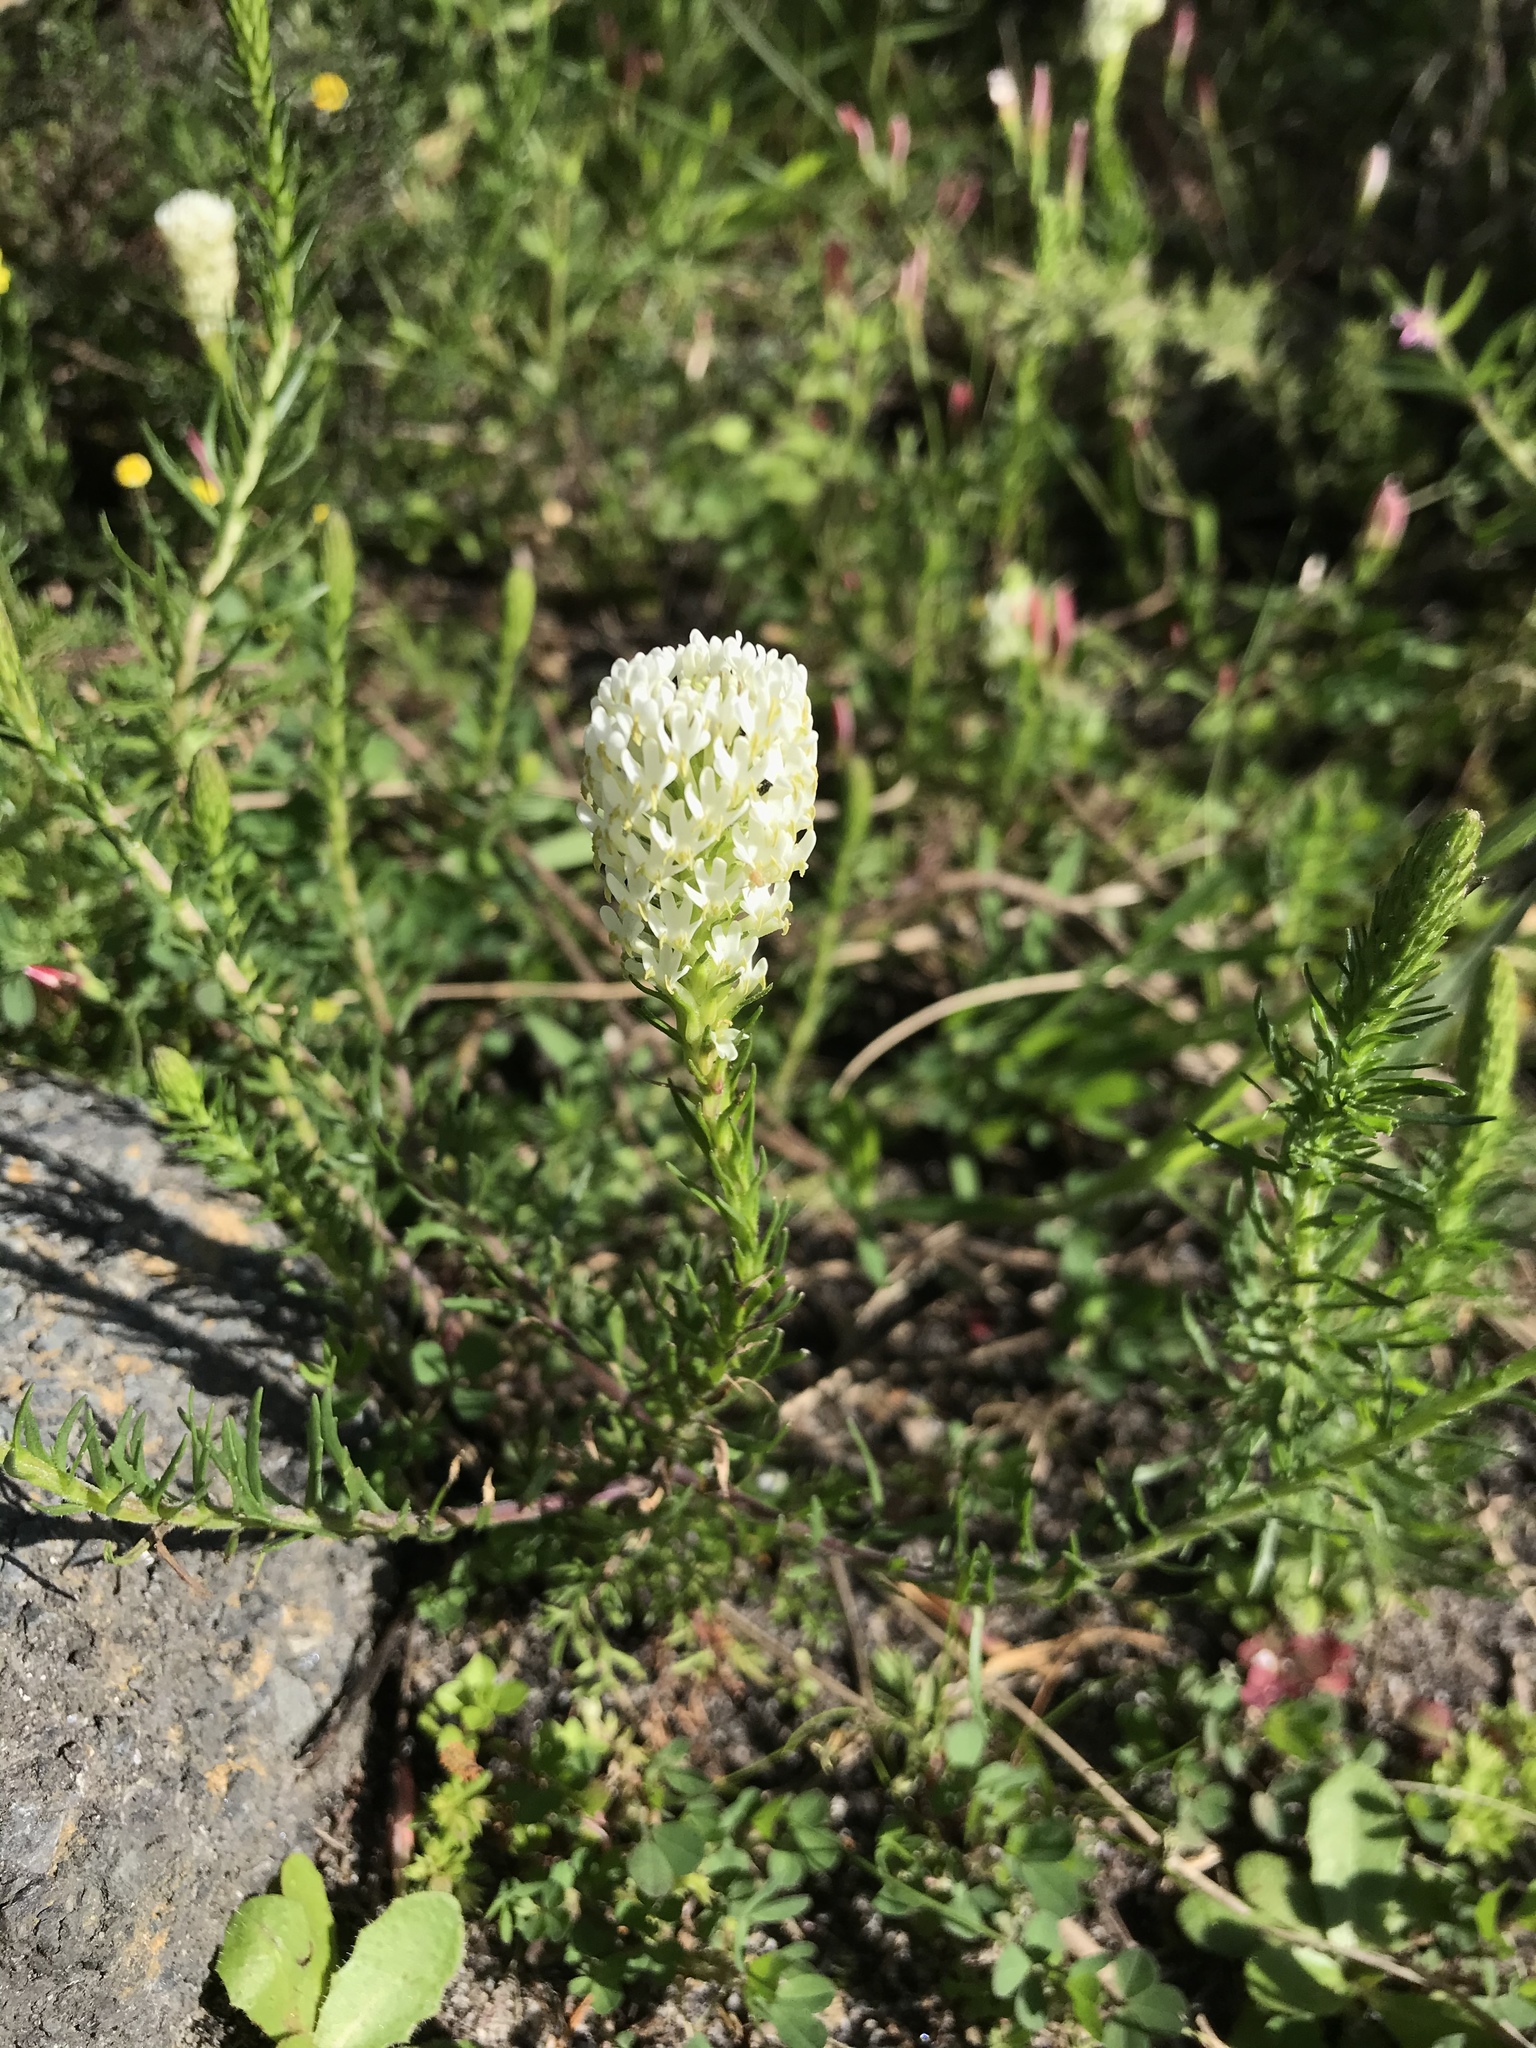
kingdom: Plantae
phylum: Tracheophyta
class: Magnoliopsida
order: Lamiales
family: Scrophulariaceae
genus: Dischisma
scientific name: Dischisma ciliatum
